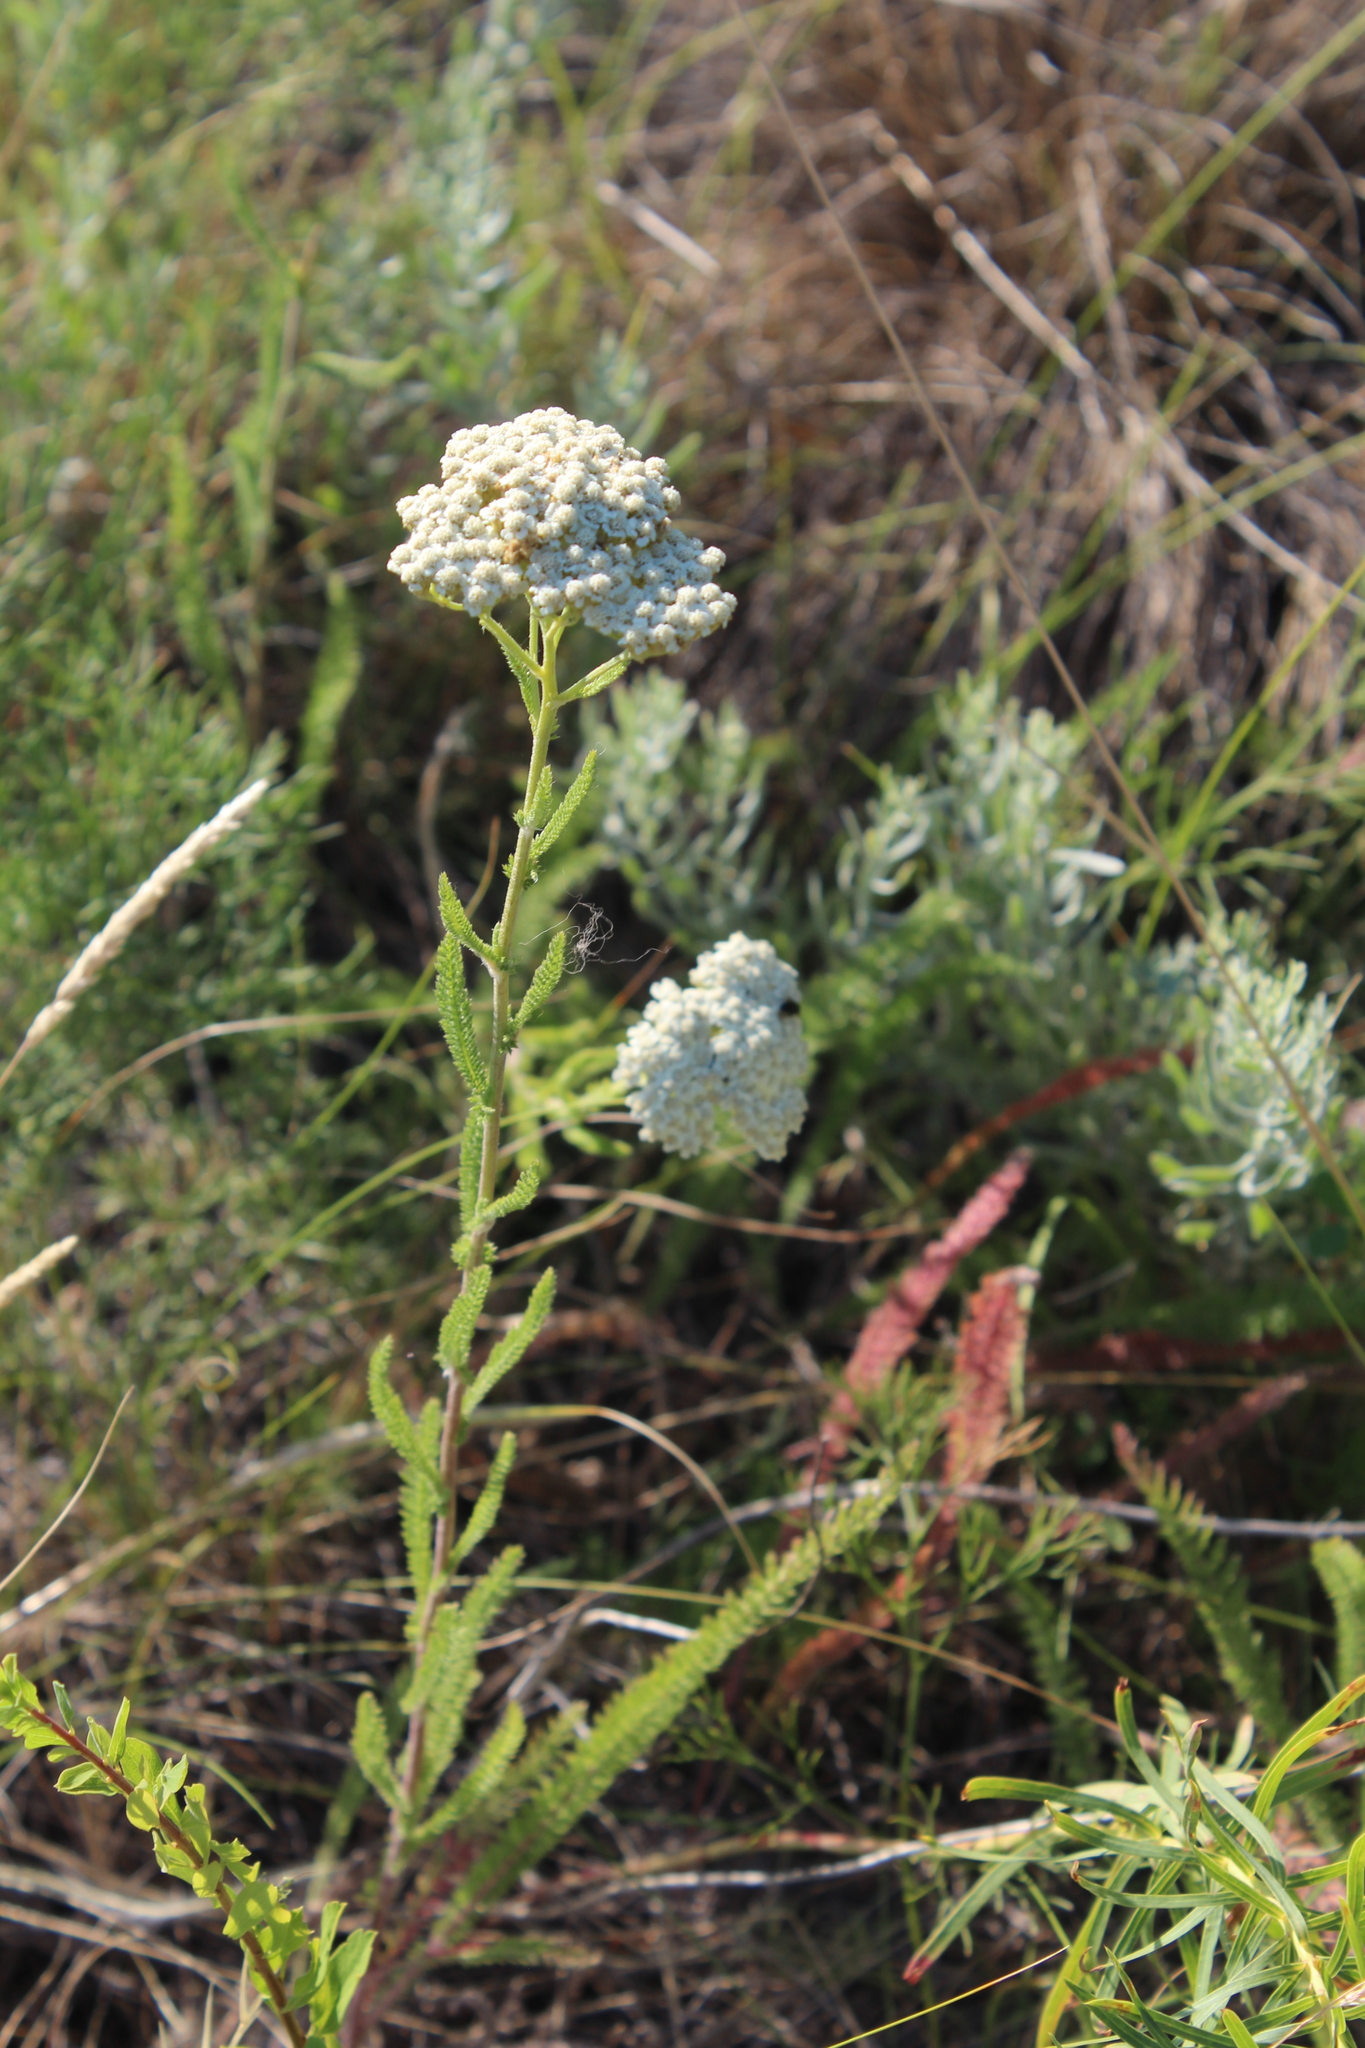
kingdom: Plantae
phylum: Tracheophyta
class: Magnoliopsida
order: Asterales
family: Asteraceae
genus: Achillea
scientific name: Achillea setacea
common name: Bristly yarrow
